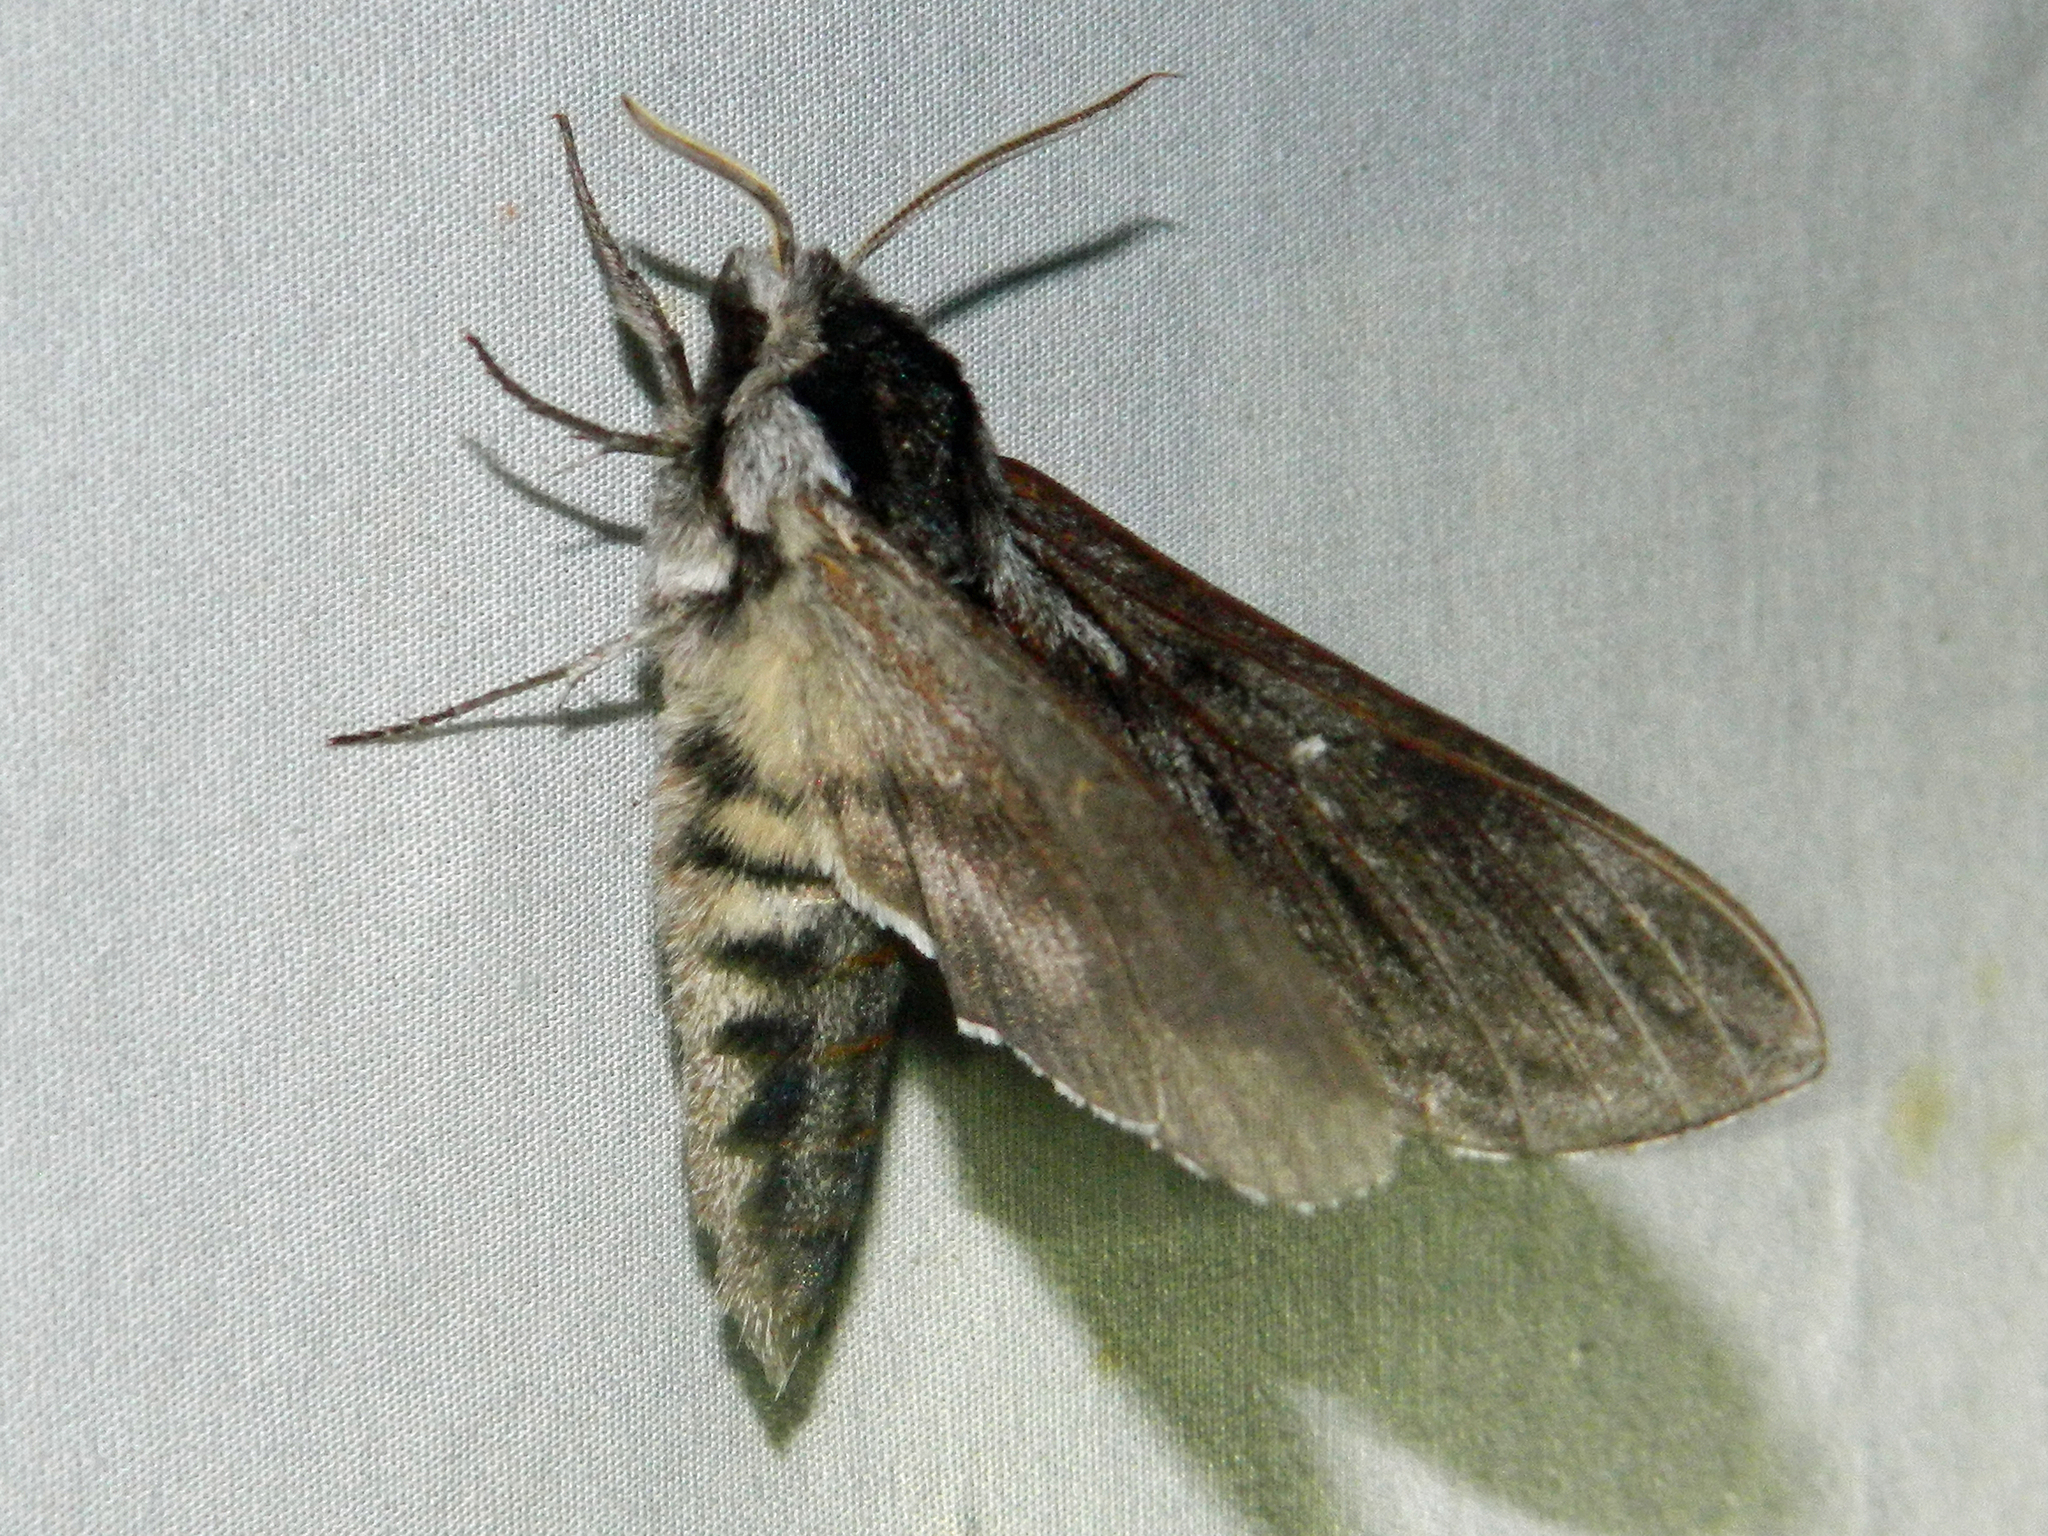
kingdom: Animalia
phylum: Arthropoda
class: Insecta
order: Lepidoptera
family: Sphingidae
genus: Sphinx
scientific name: Sphinx poecila
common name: Northern apple sphinx
